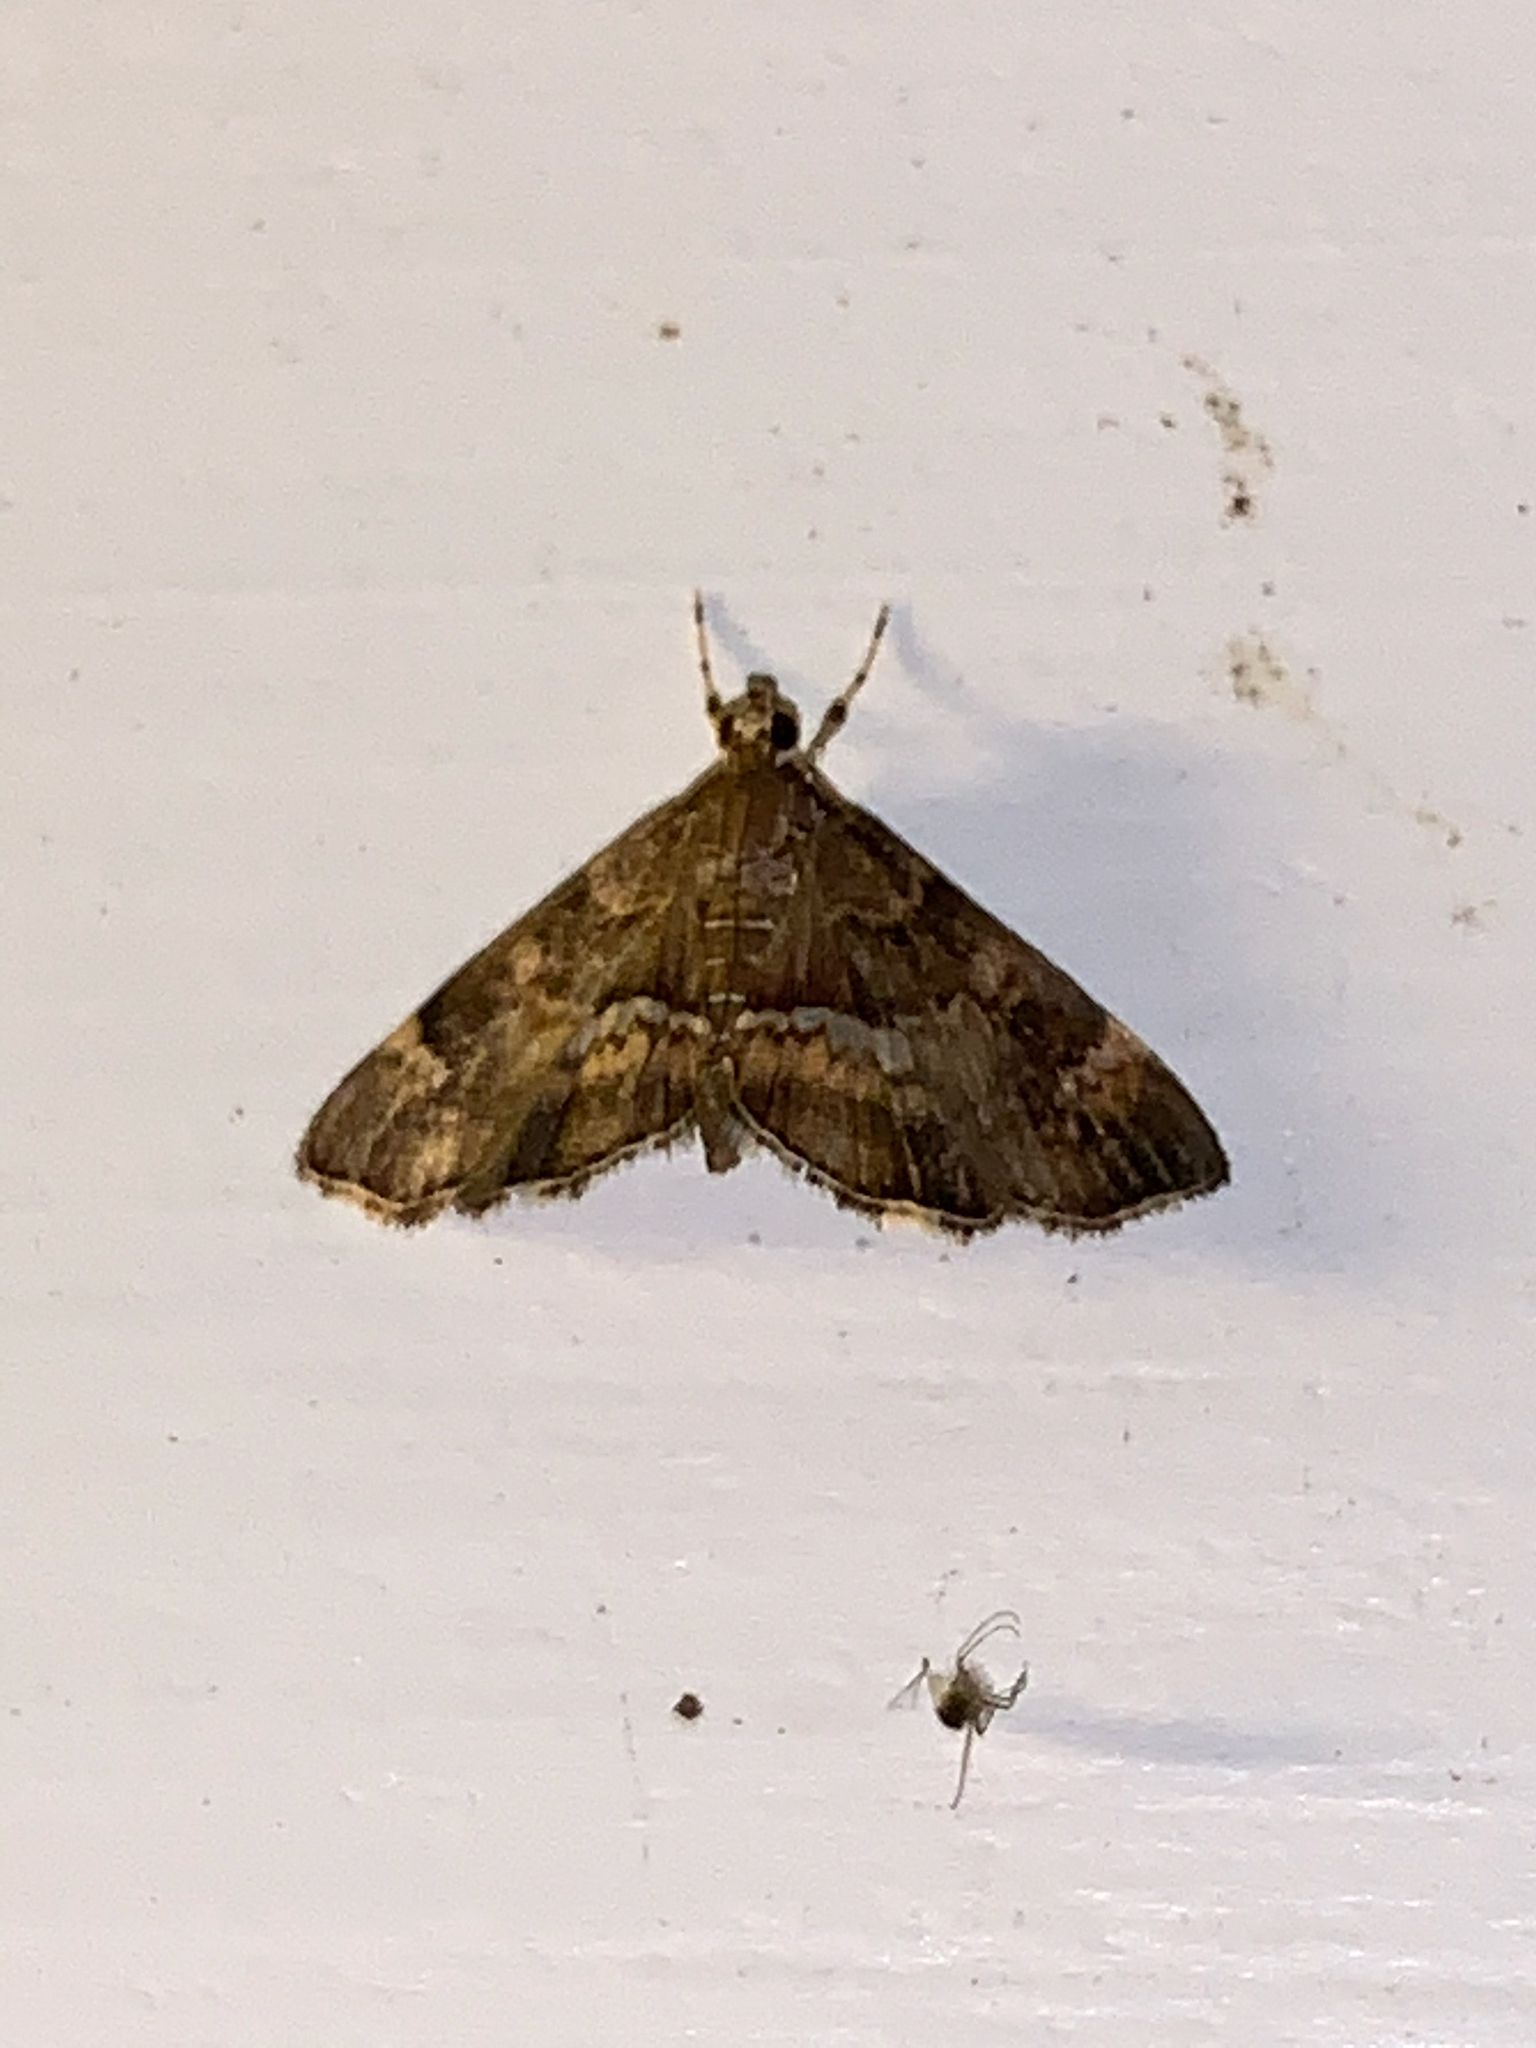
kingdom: Animalia
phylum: Arthropoda
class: Insecta
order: Lepidoptera
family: Crambidae
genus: Hymenia
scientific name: Hymenia perspectalis
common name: Spotted beet webworm
